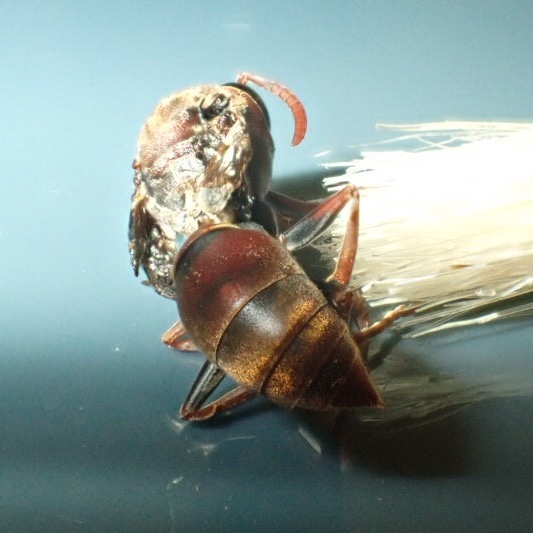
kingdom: Animalia
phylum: Arthropoda
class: Insecta
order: Hymenoptera
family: Eumenidae
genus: Polistes
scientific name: Polistes humilis
